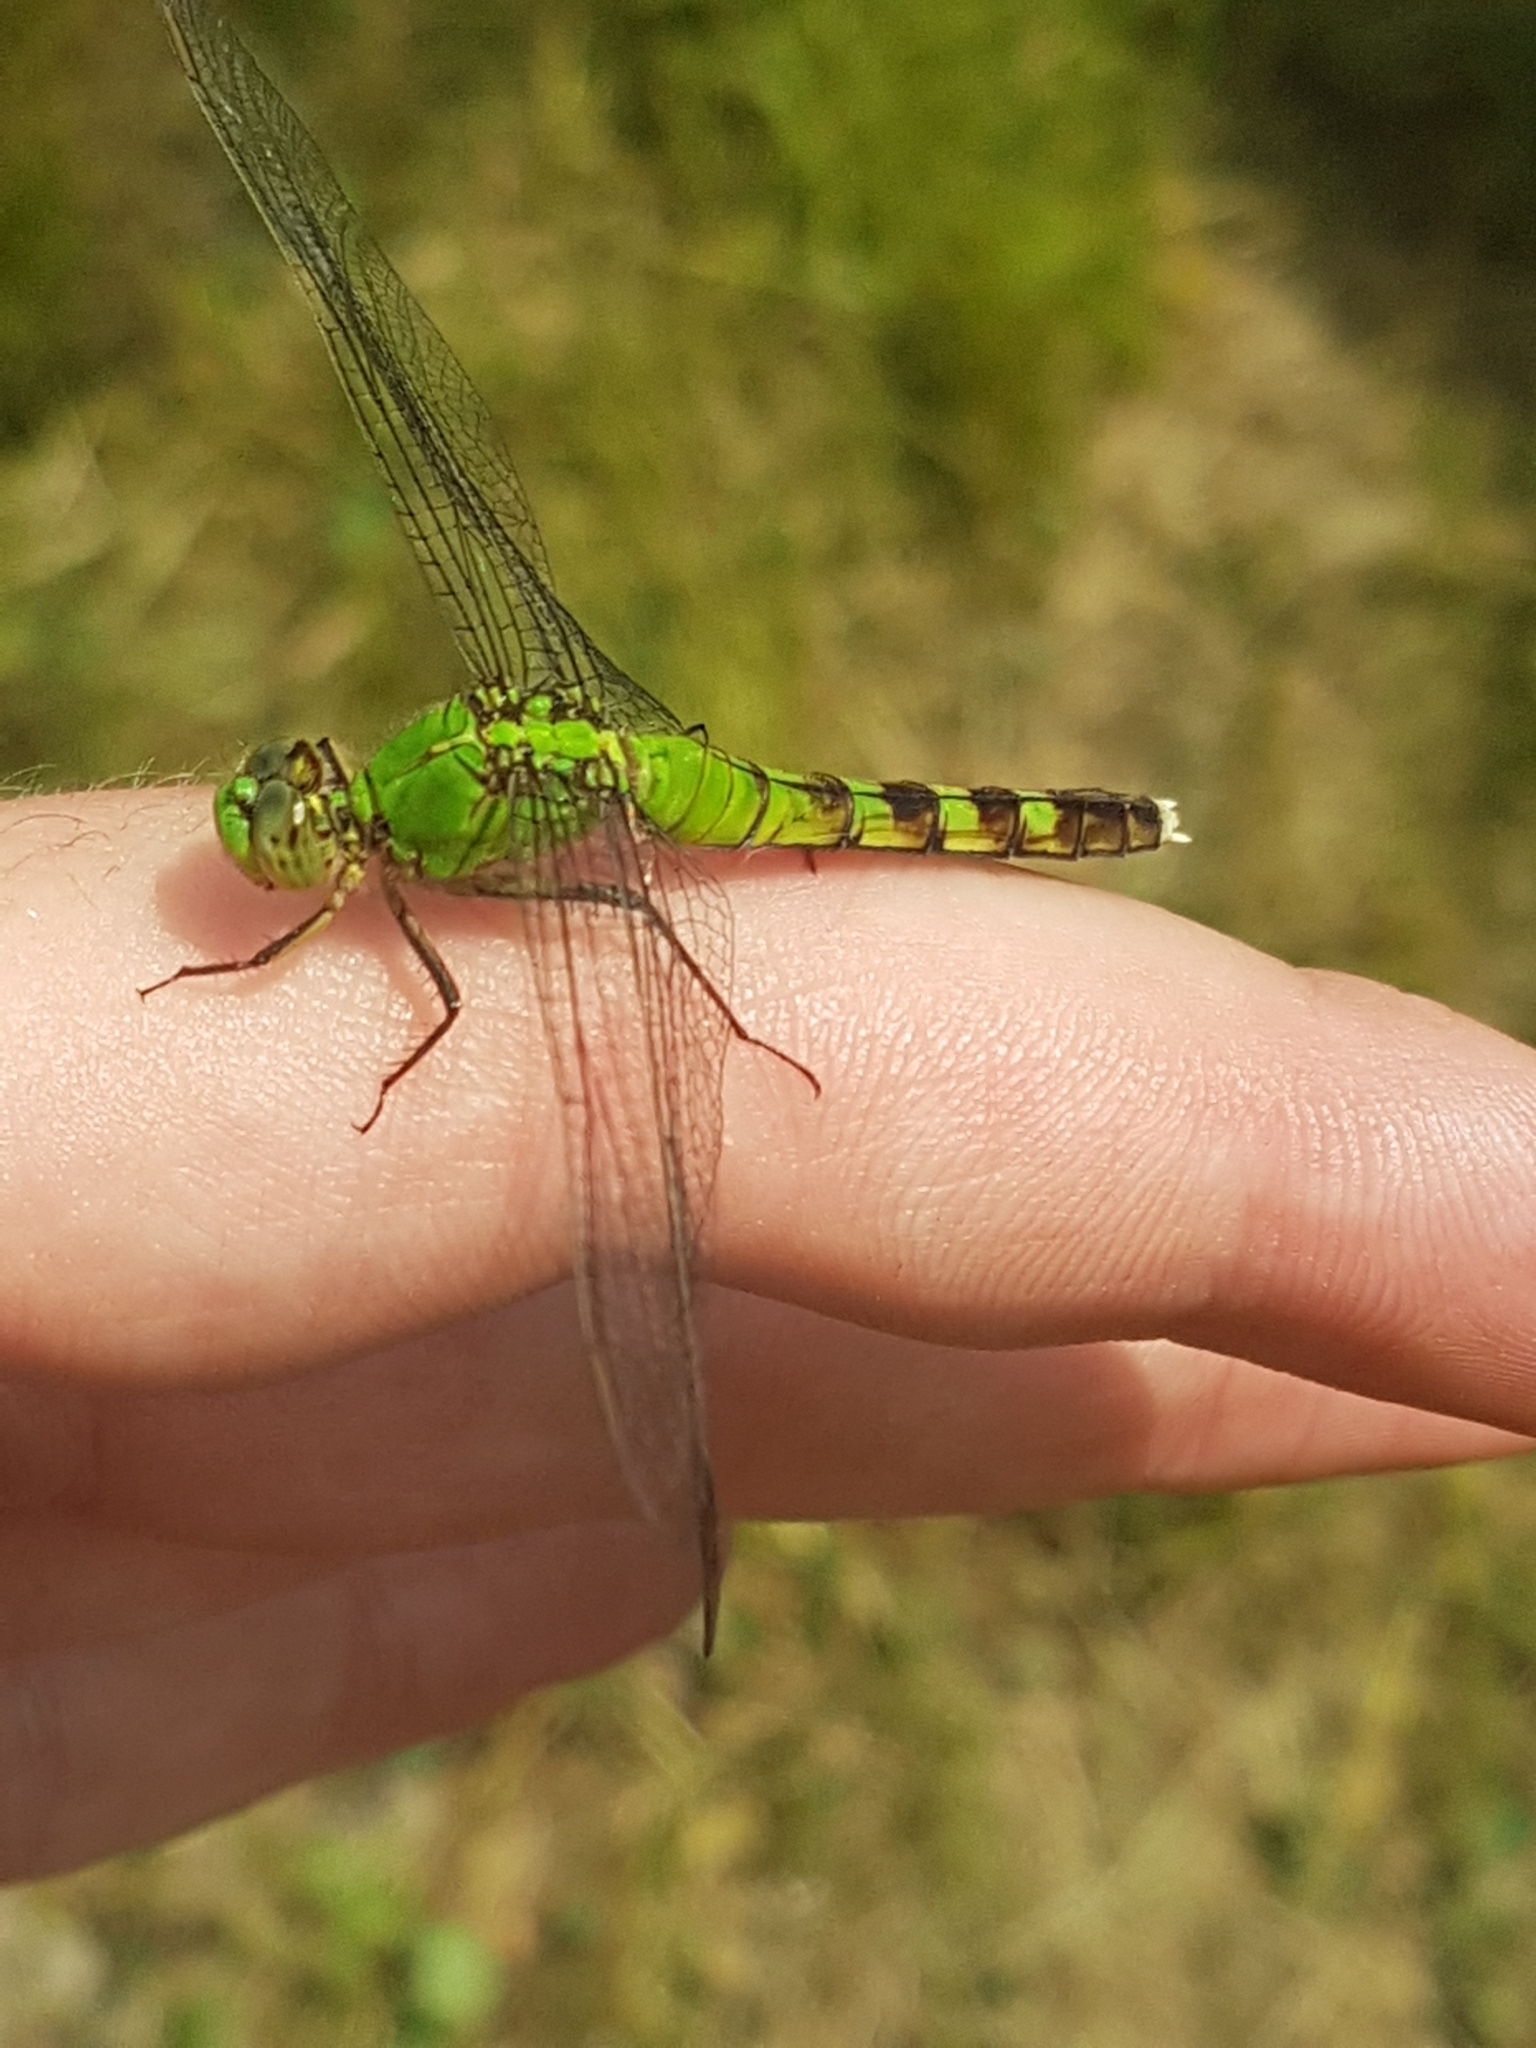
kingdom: Animalia
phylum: Arthropoda
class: Insecta
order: Odonata
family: Libellulidae
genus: Erythemis
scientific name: Erythemis simplicicollis
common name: Eastern pondhawk
